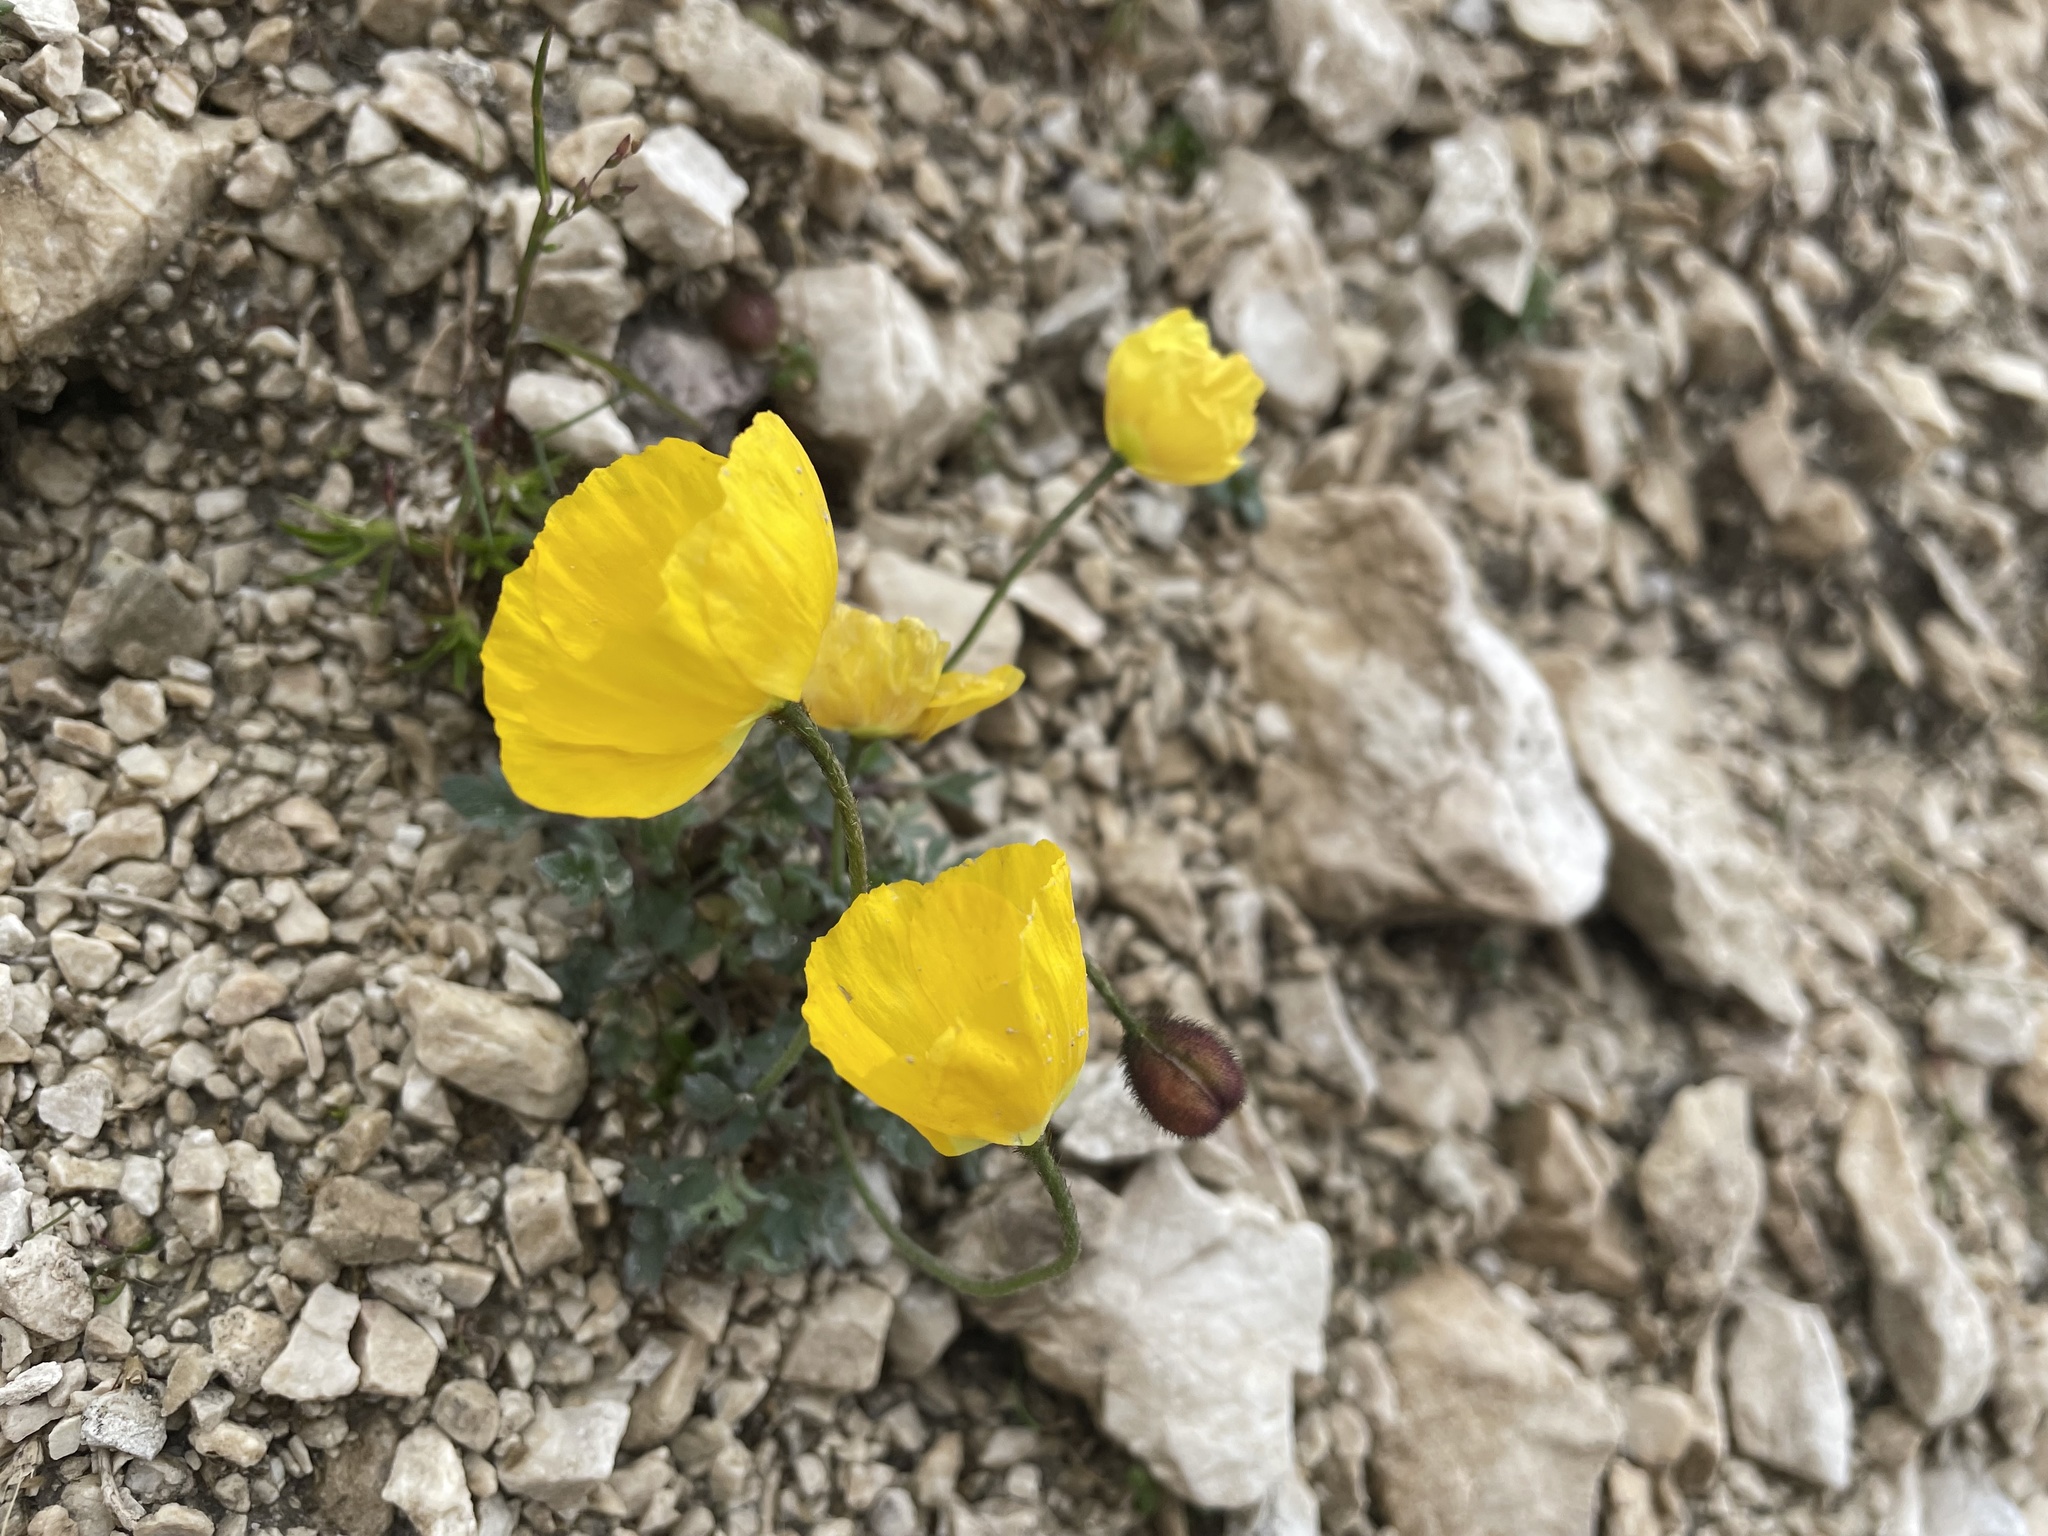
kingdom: Plantae
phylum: Tracheophyta
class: Magnoliopsida
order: Ranunculales
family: Papaveraceae
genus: Papaver
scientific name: Papaver alpinum
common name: Austrian poppy
